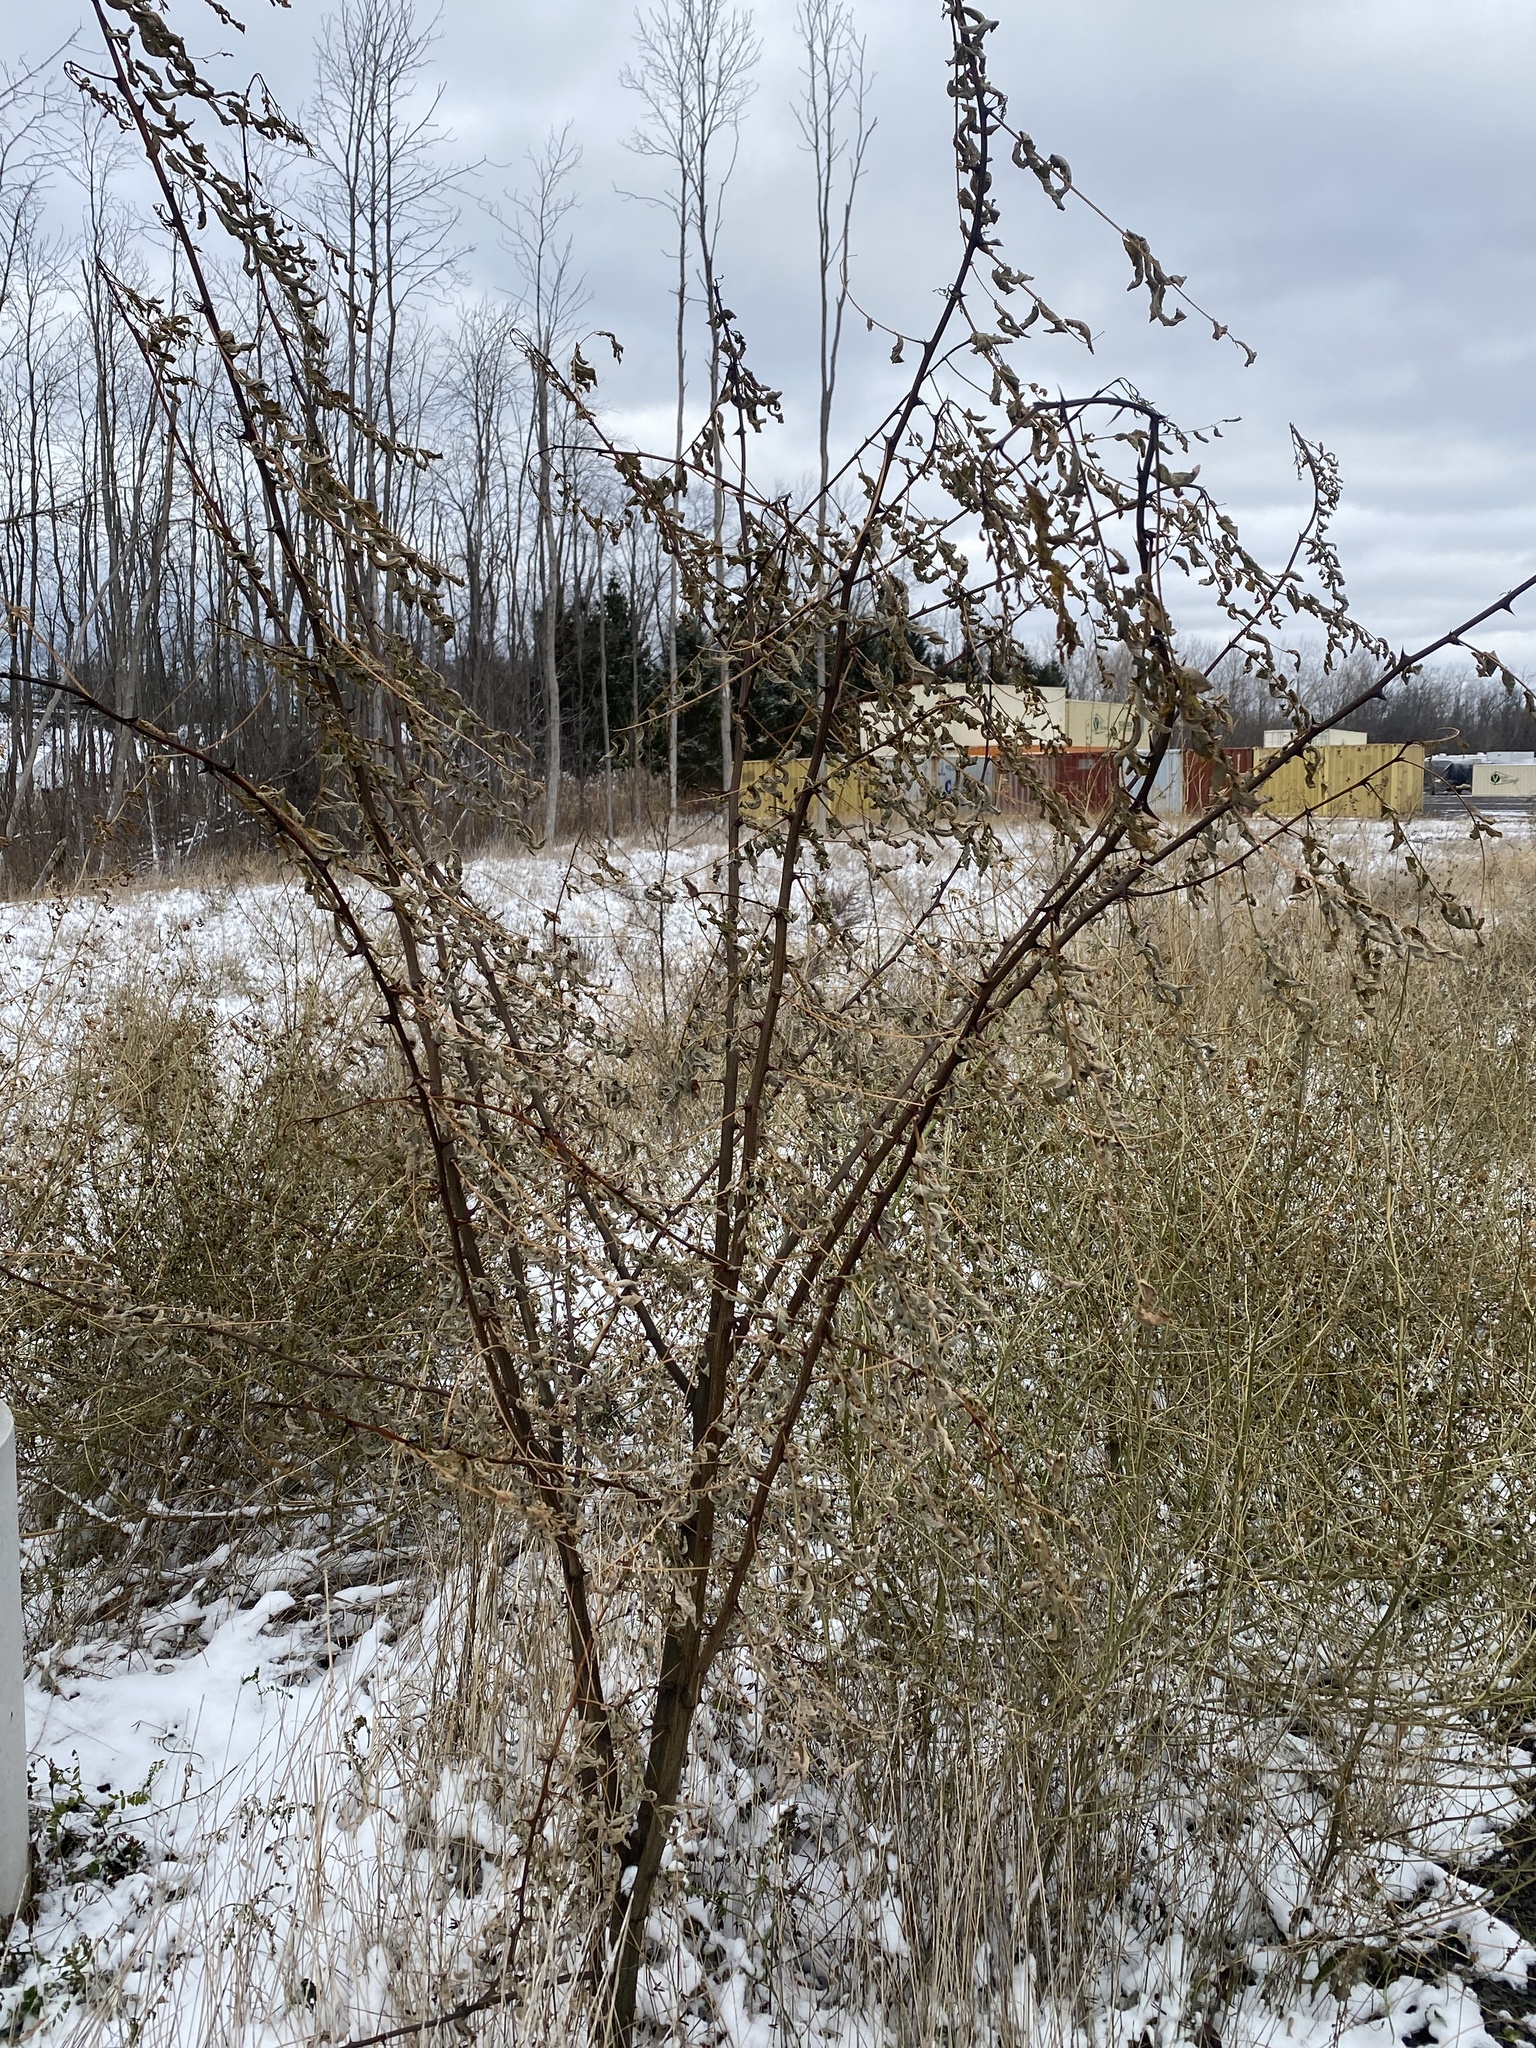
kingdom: Plantae
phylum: Tracheophyta
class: Magnoliopsida
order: Fabales
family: Fabaceae
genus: Robinia
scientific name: Robinia pseudoacacia
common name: Black locust
